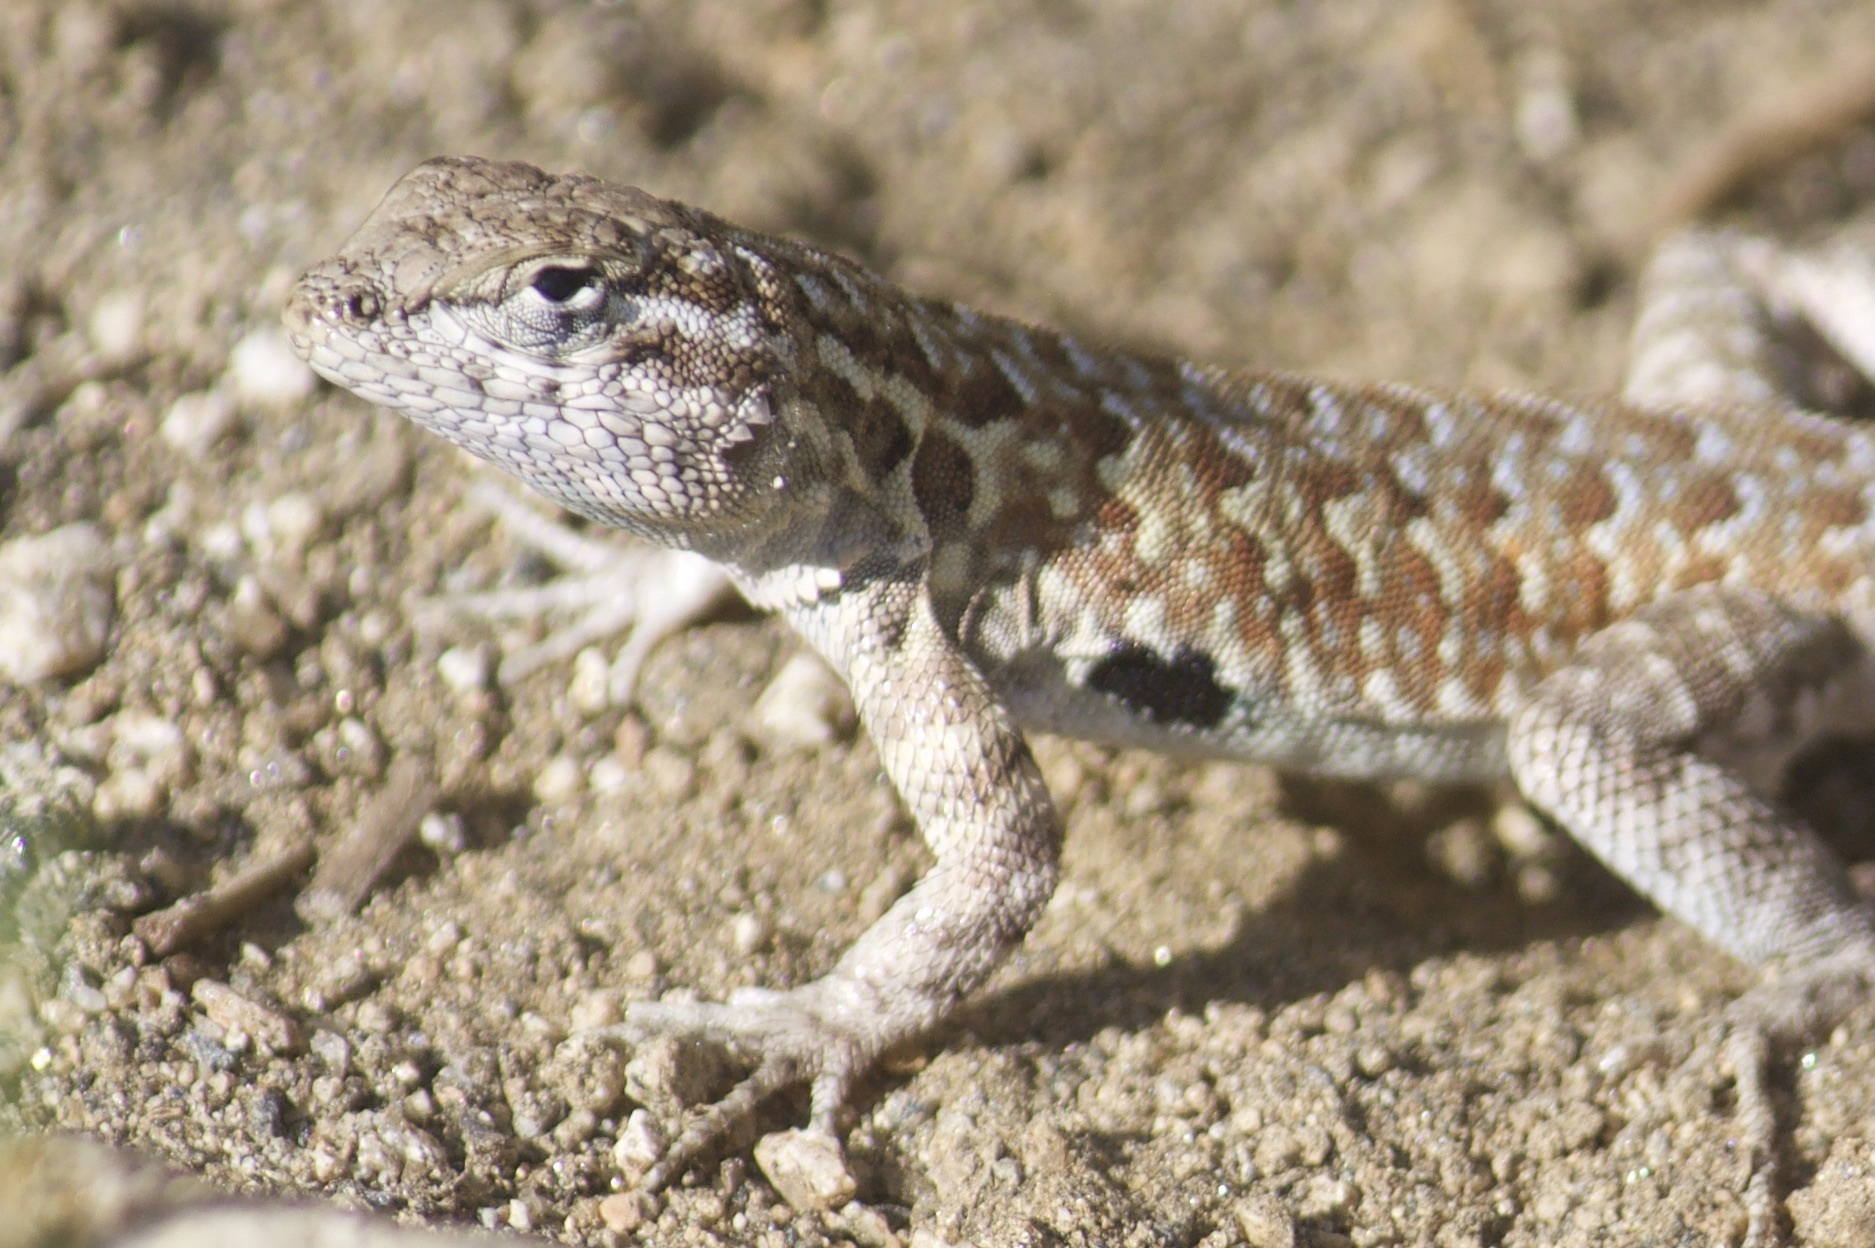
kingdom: Animalia
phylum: Chordata
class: Squamata
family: Phrynosomatidae
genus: Uta
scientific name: Uta stansburiana
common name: Side-blotched lizard
